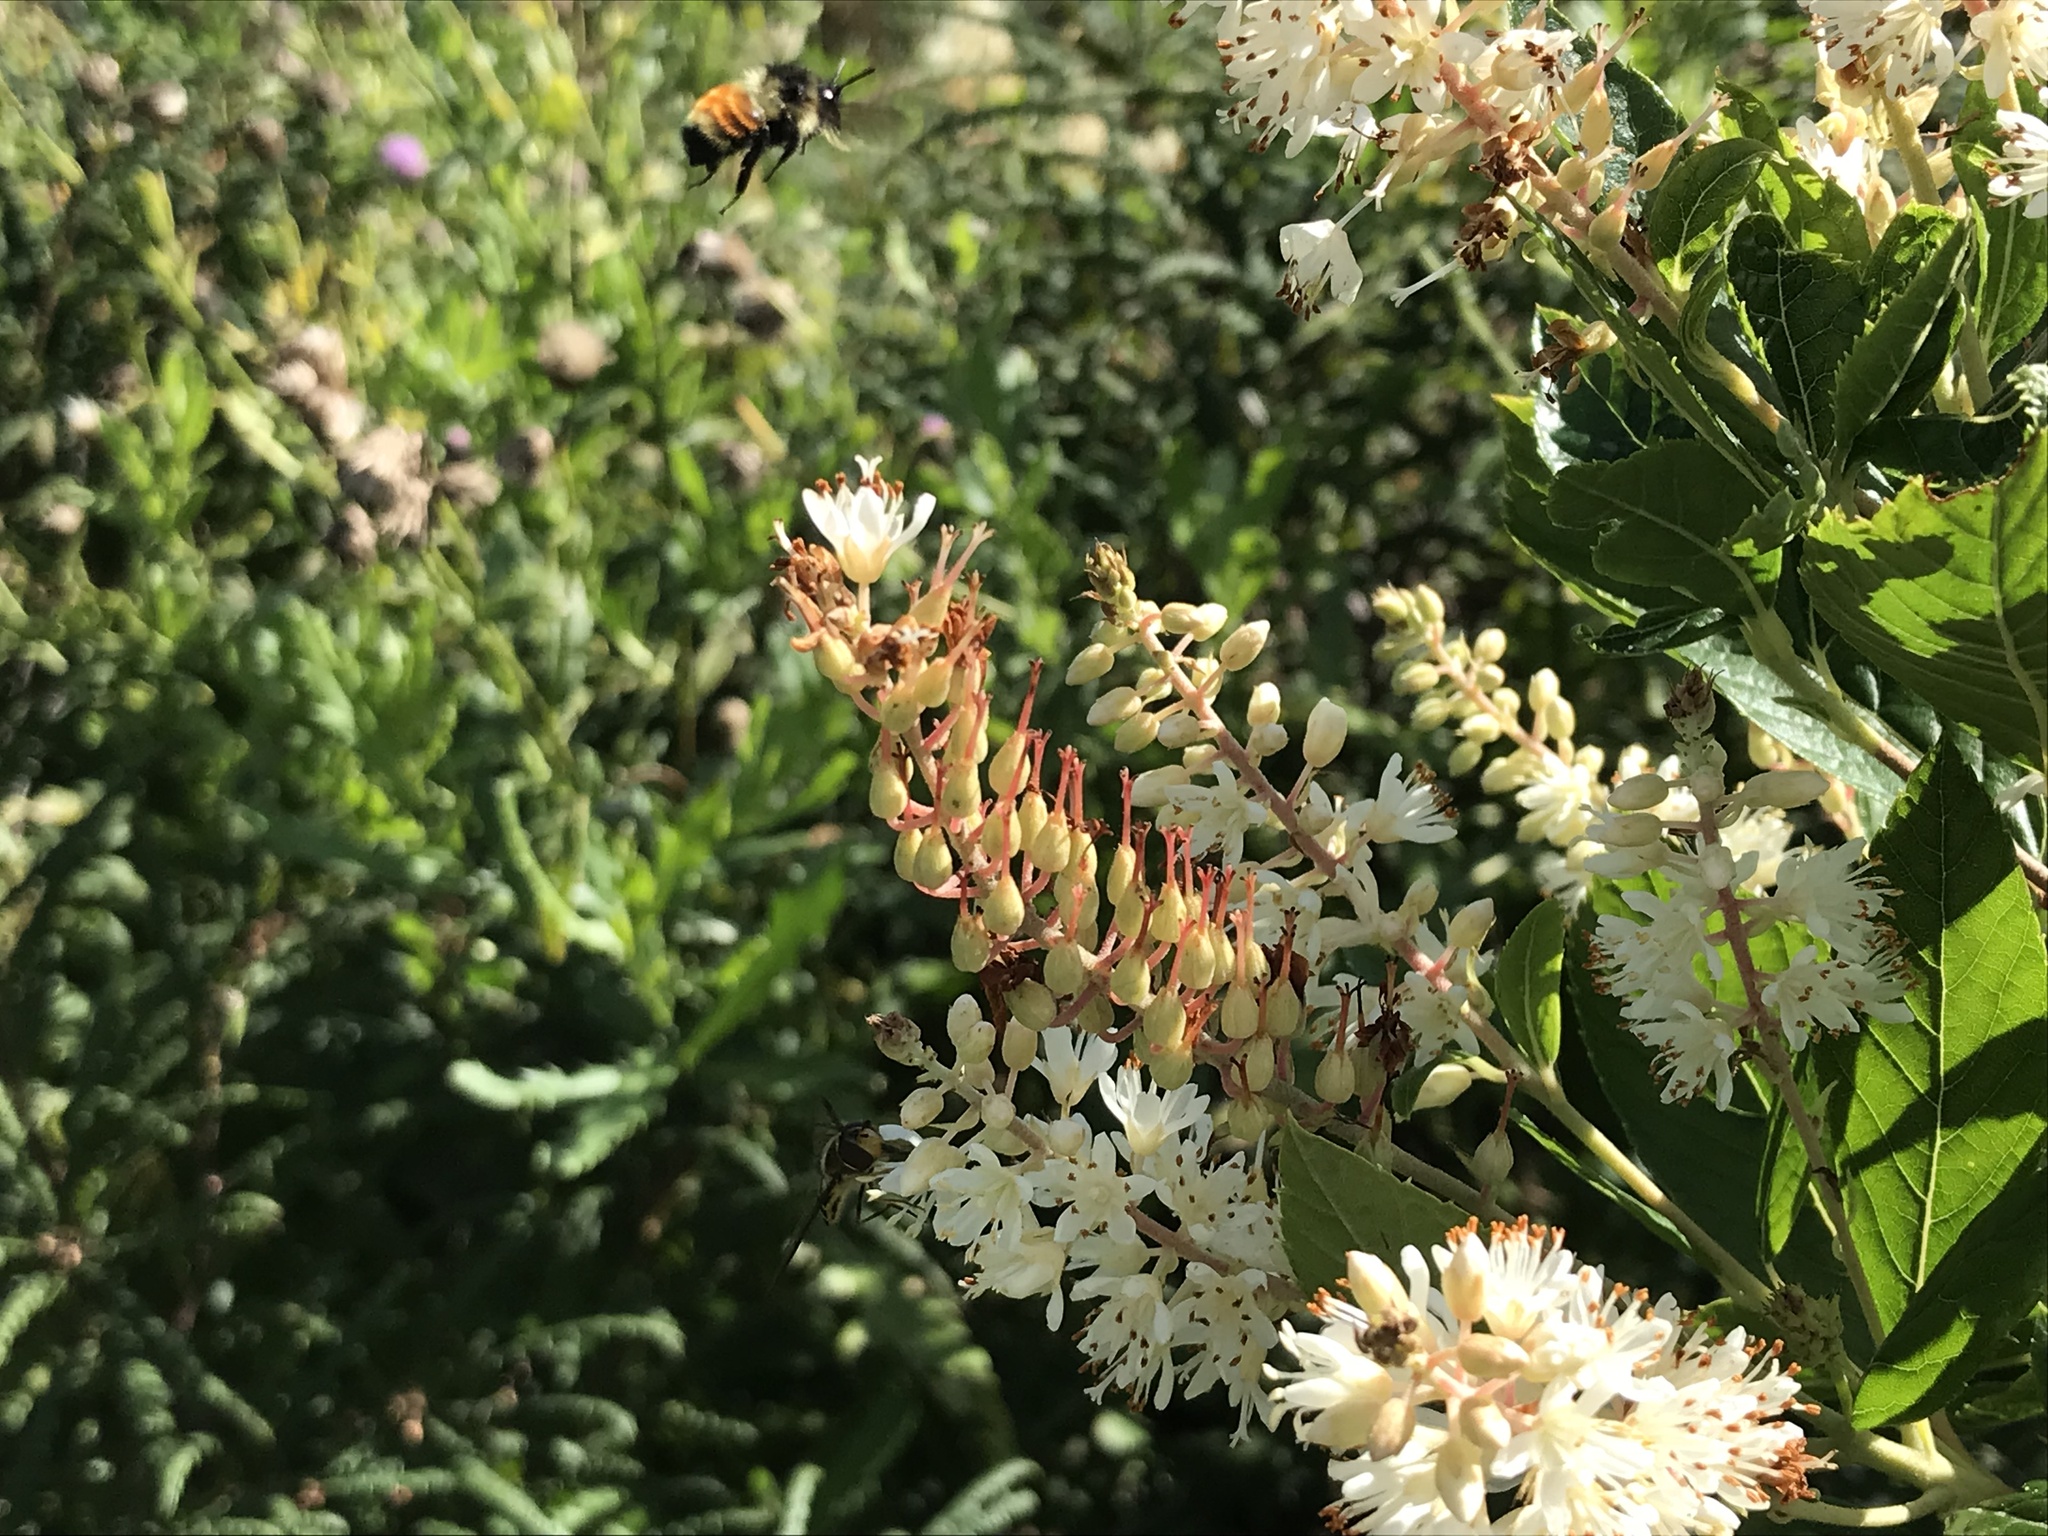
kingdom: Animalia
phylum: Arthropoda
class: Insecta
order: Hymenoptera
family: Apidae
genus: Bombus
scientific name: Bombus ternarius
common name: Tri-colored bumble bee
